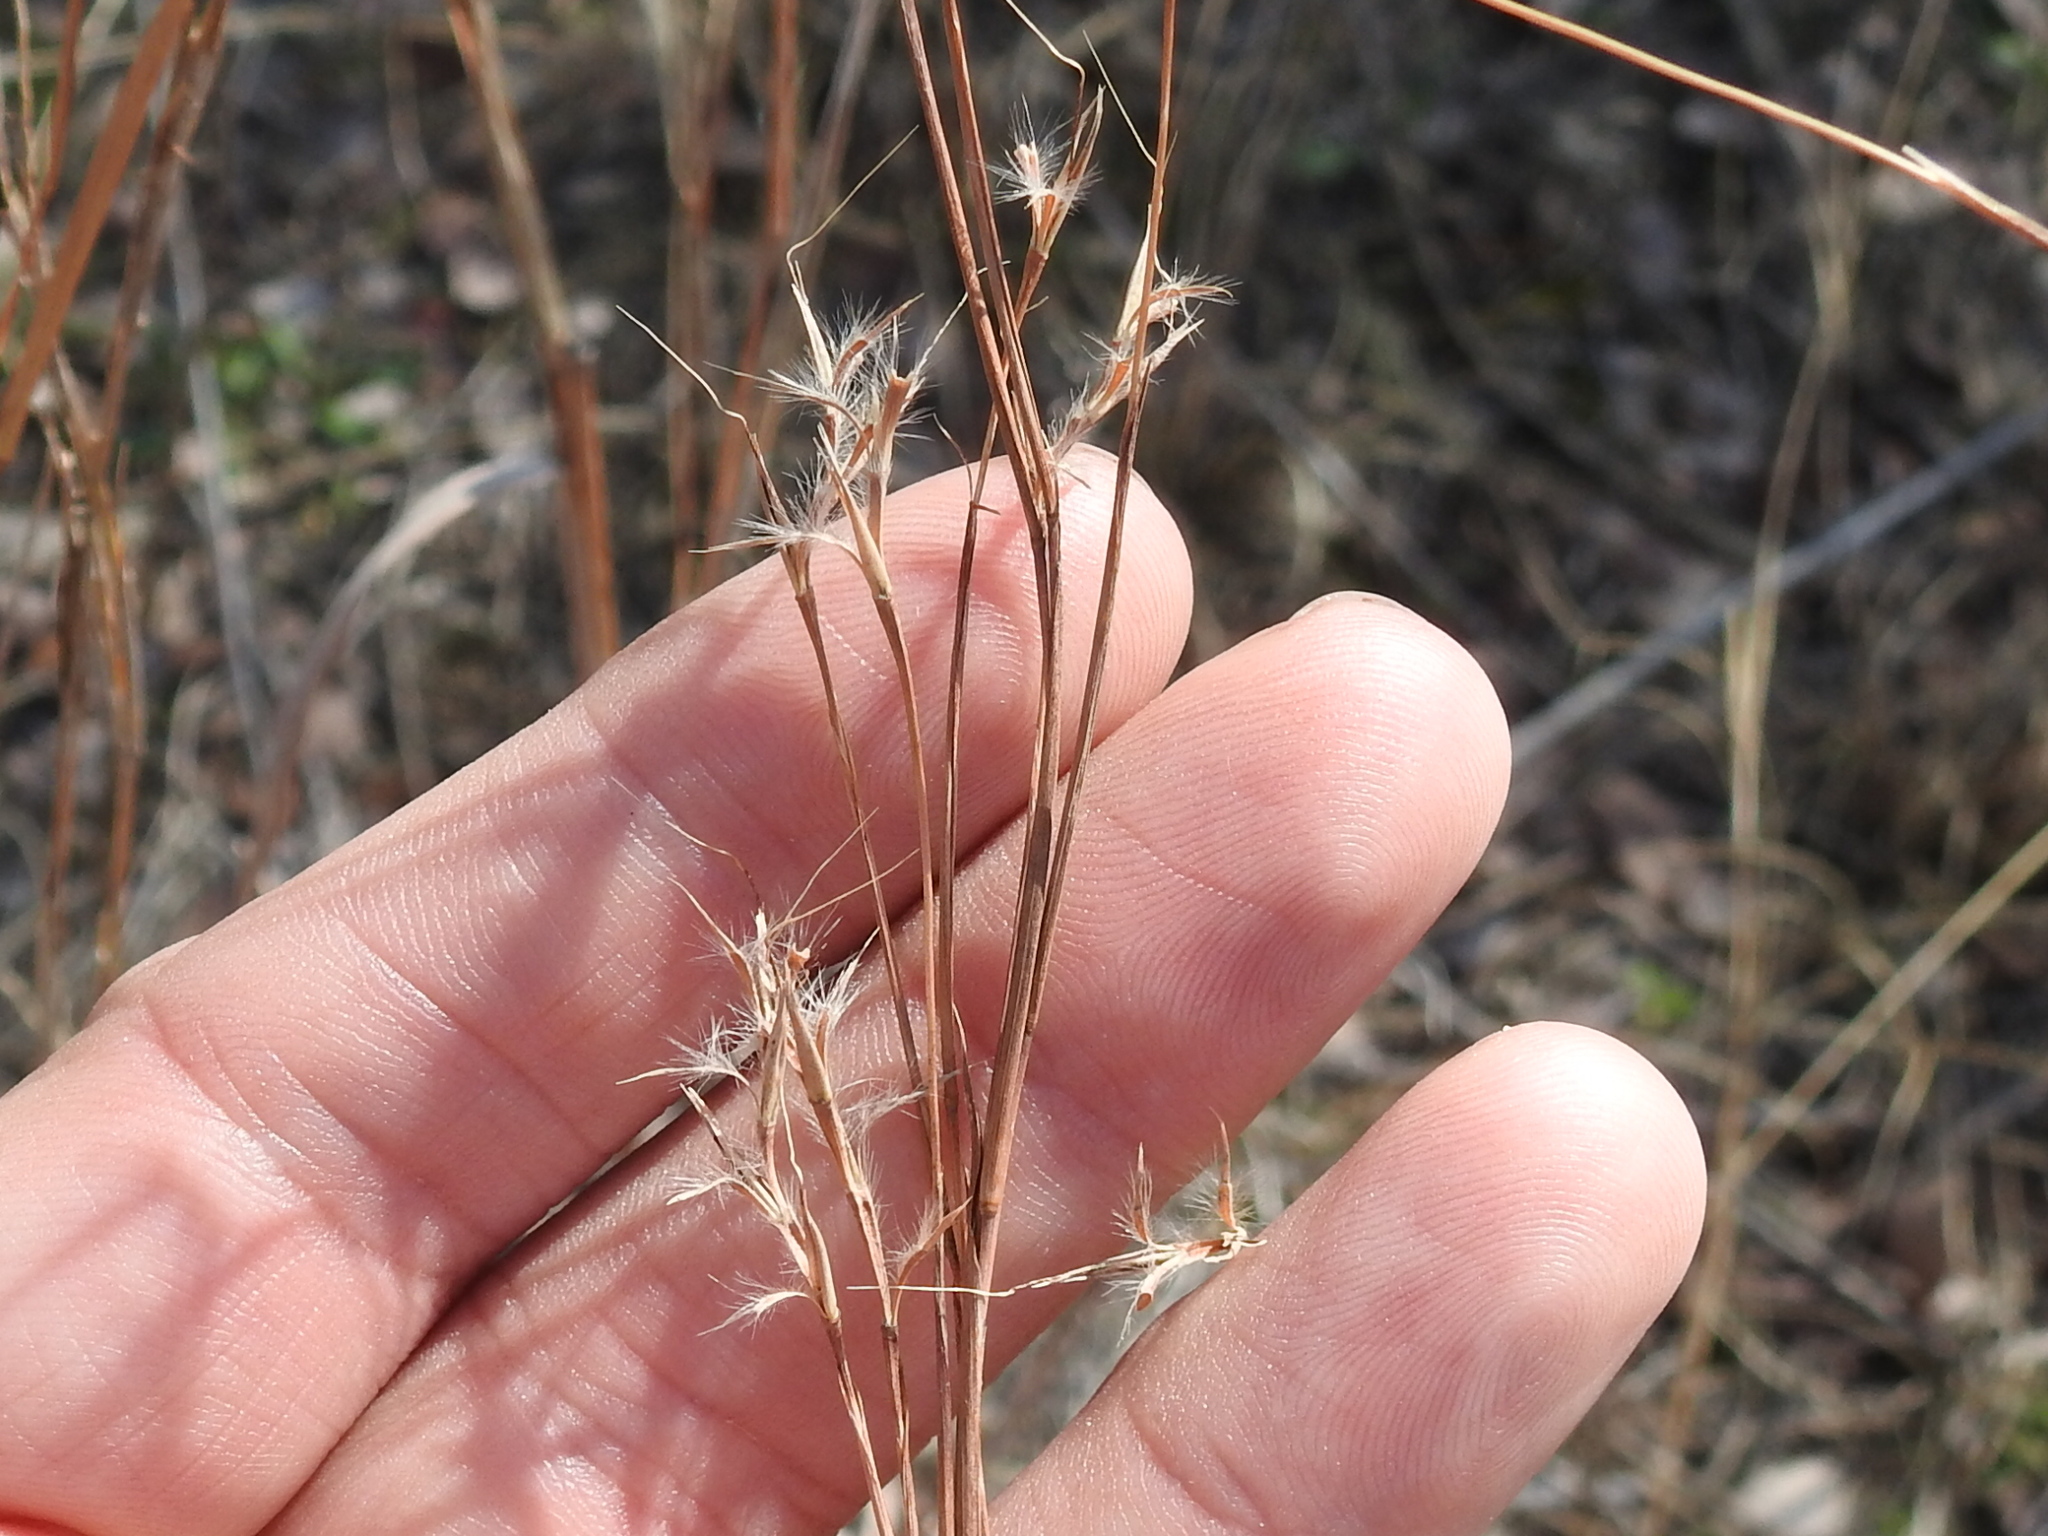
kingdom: Plantae
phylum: Tracheophyta
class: Liliopsida
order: Poales
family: Poaceae
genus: Schizachyrium
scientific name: Schizachyrium scoparium
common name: Little bluestem
